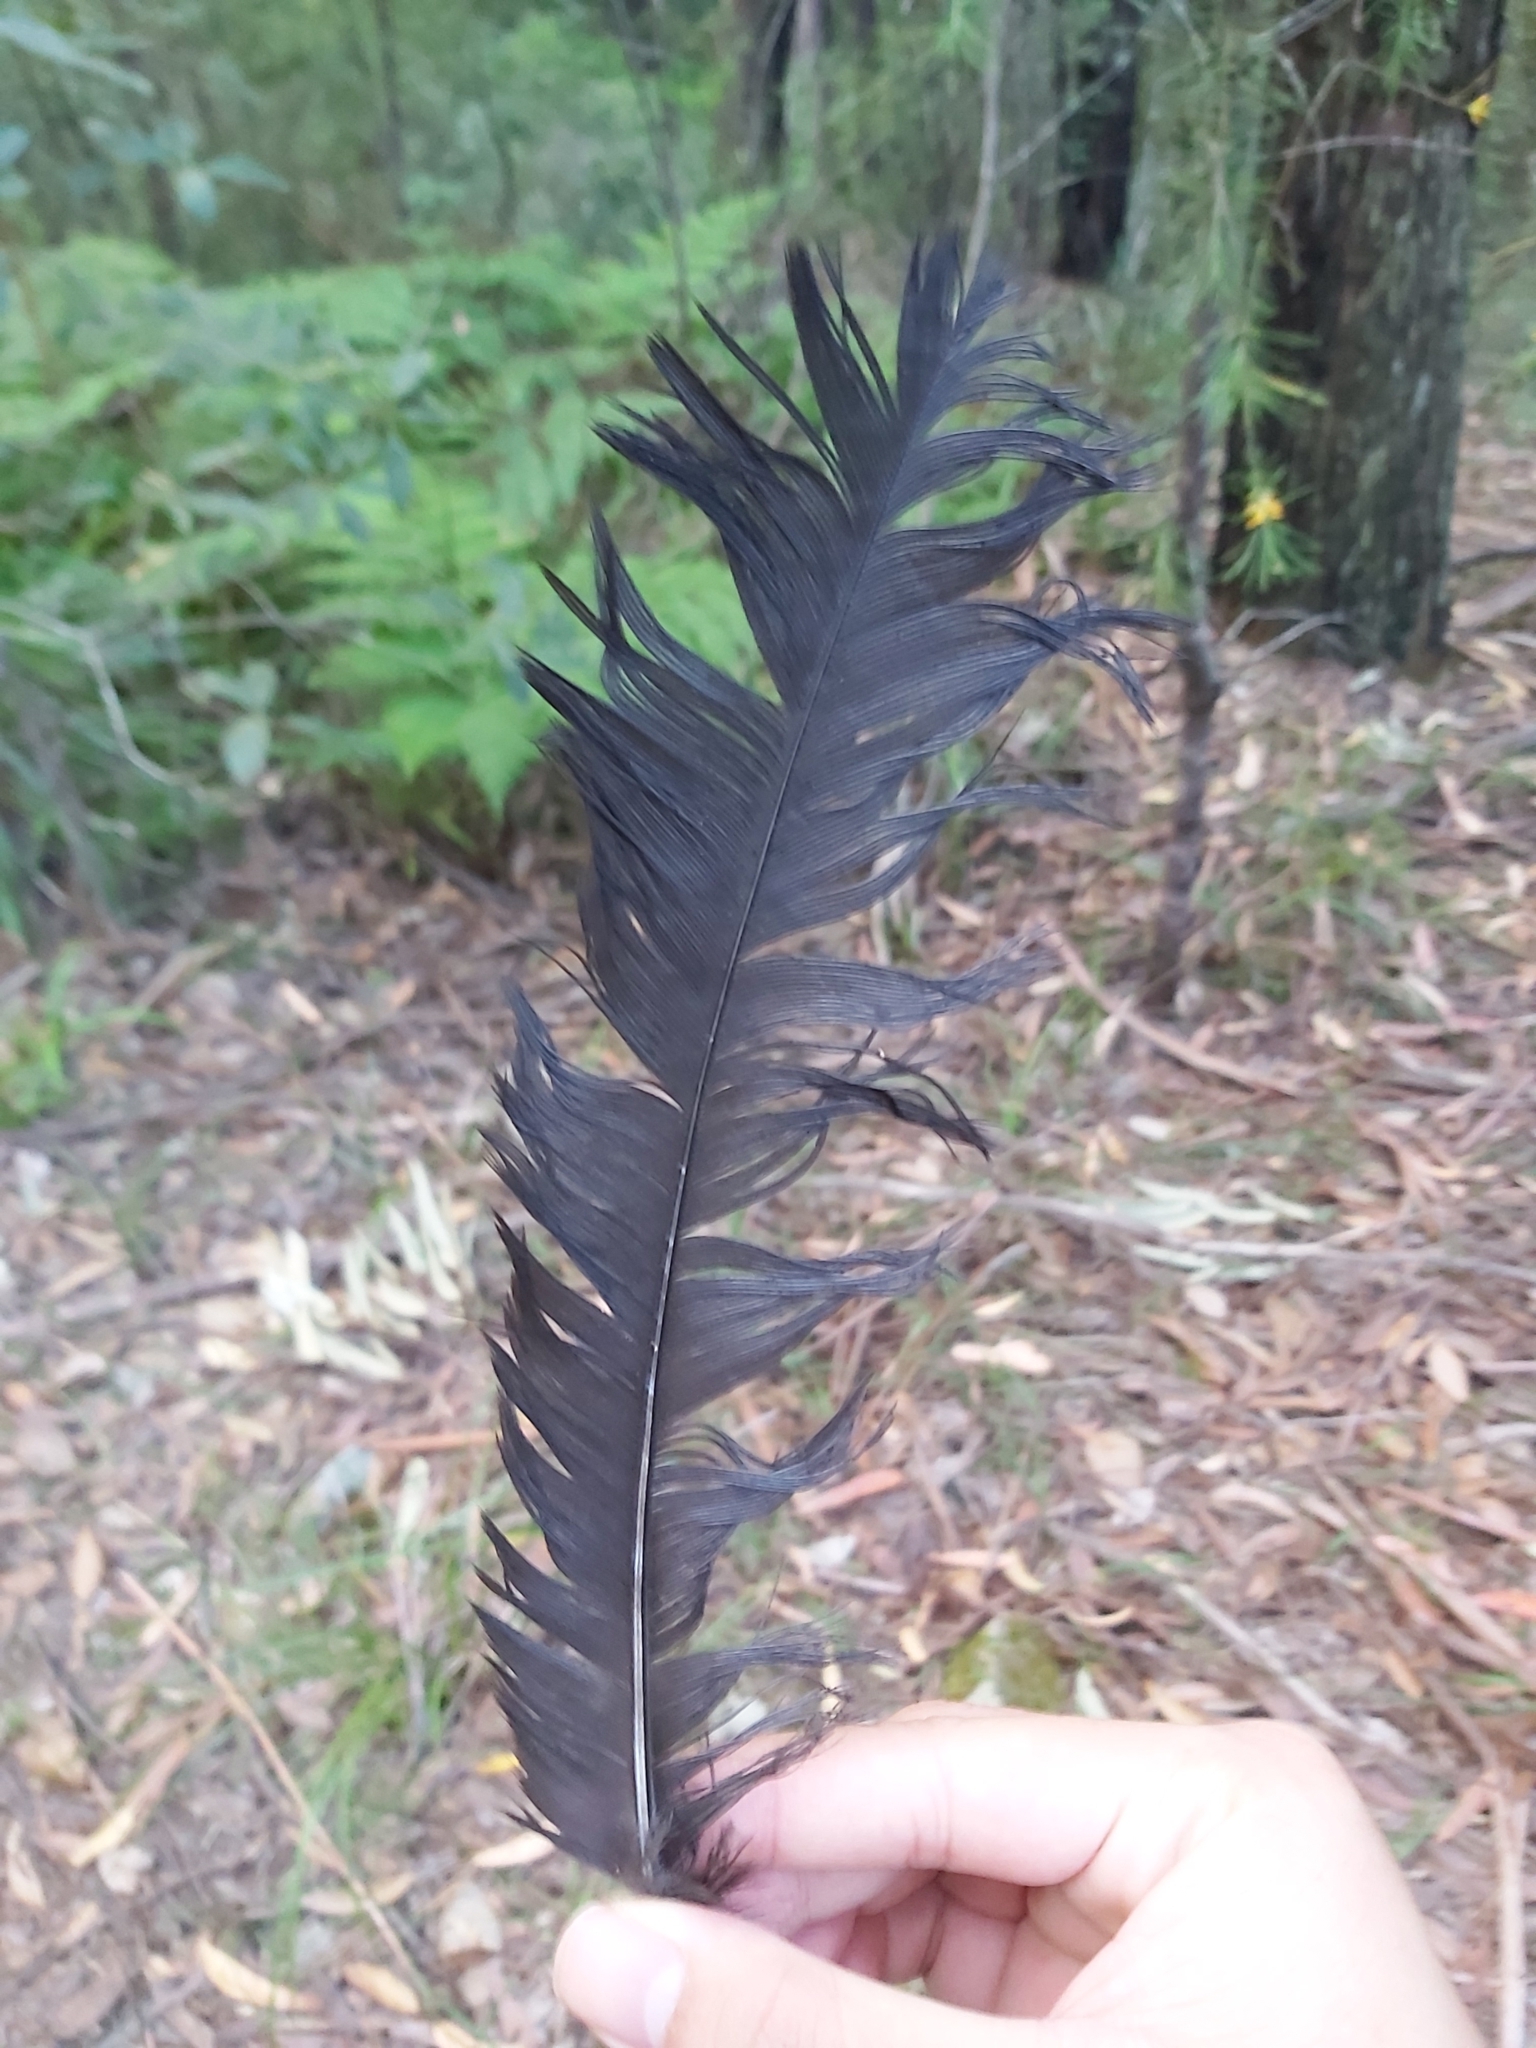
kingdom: Animalia
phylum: Chordata
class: Aves
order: Galliformes
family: Megapodiidae
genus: Alectura
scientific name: Alectura lathami
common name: Australian brushturkey
